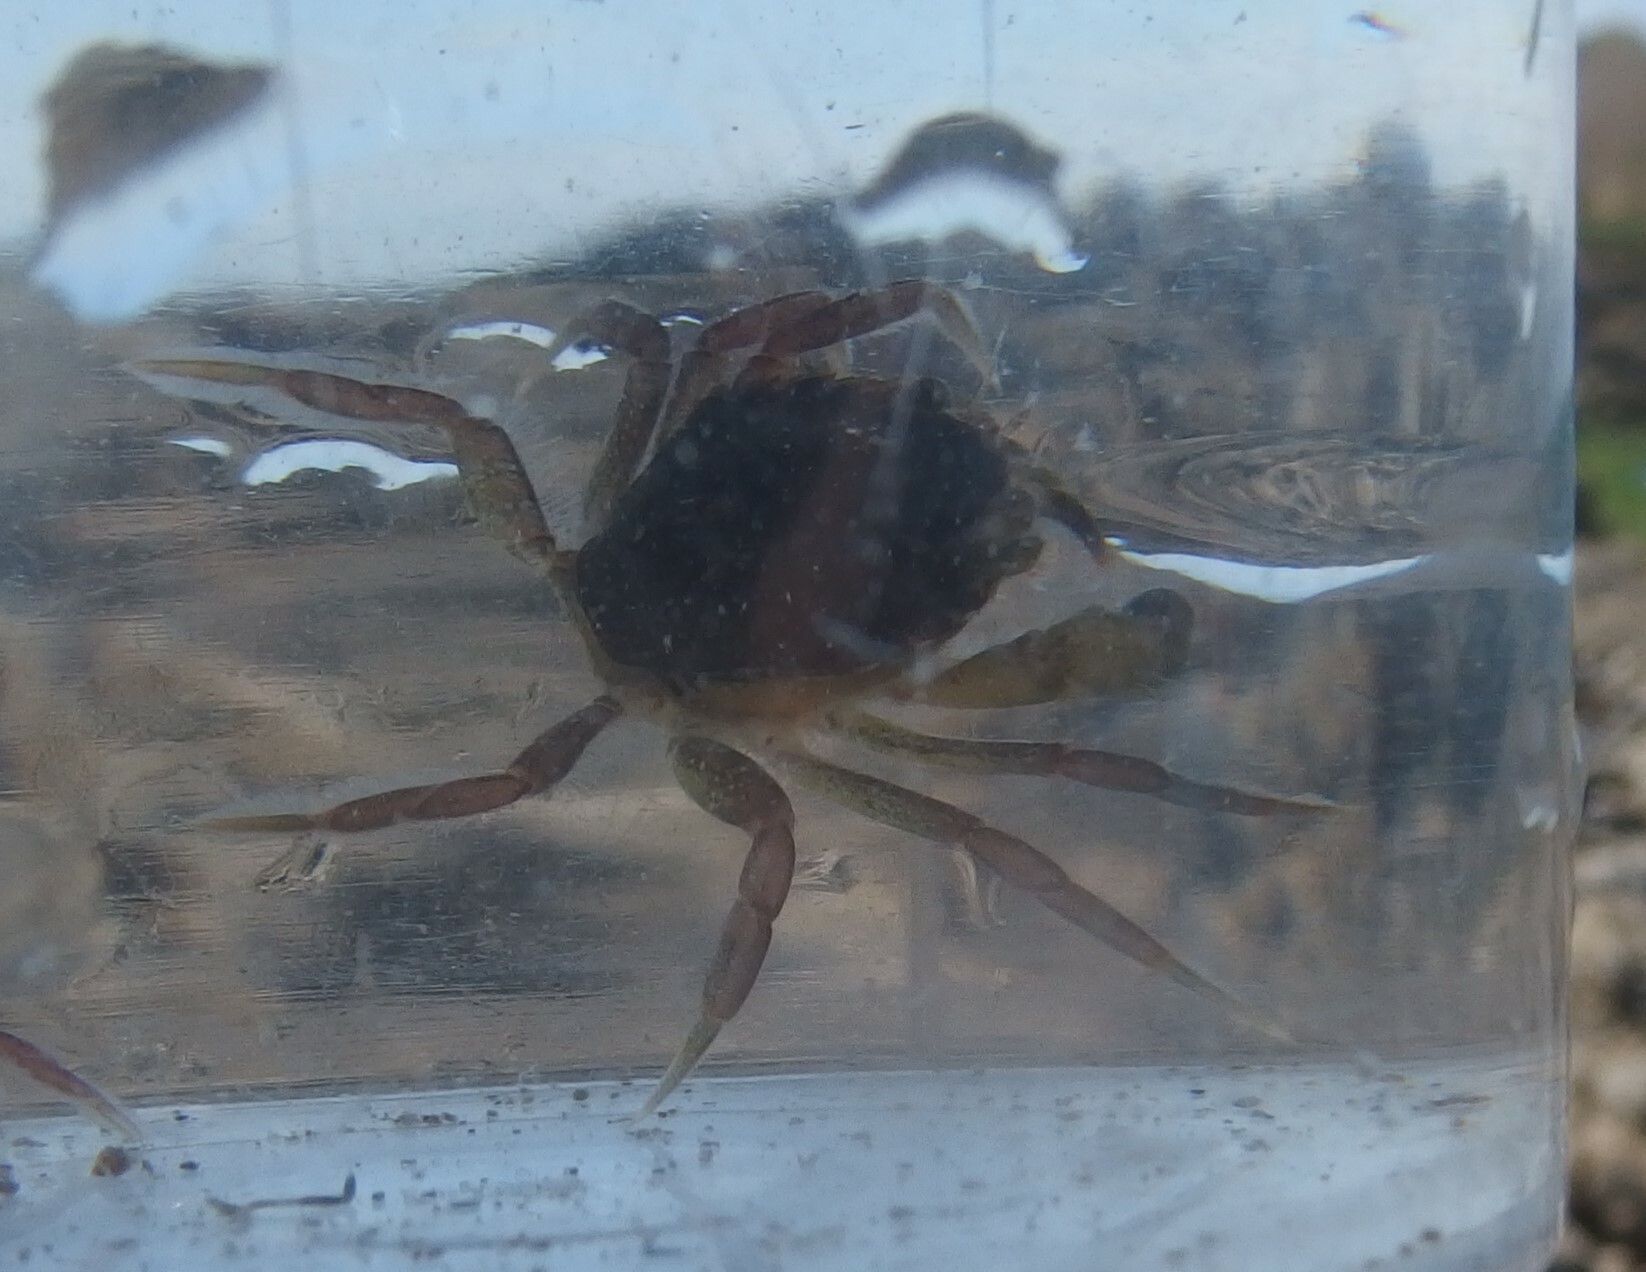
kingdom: Animalia
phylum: Arthropoda
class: Malacostraca
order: Decapoda
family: Carcinidae
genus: Carcinus
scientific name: Carcinus maenas
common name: European green crab
